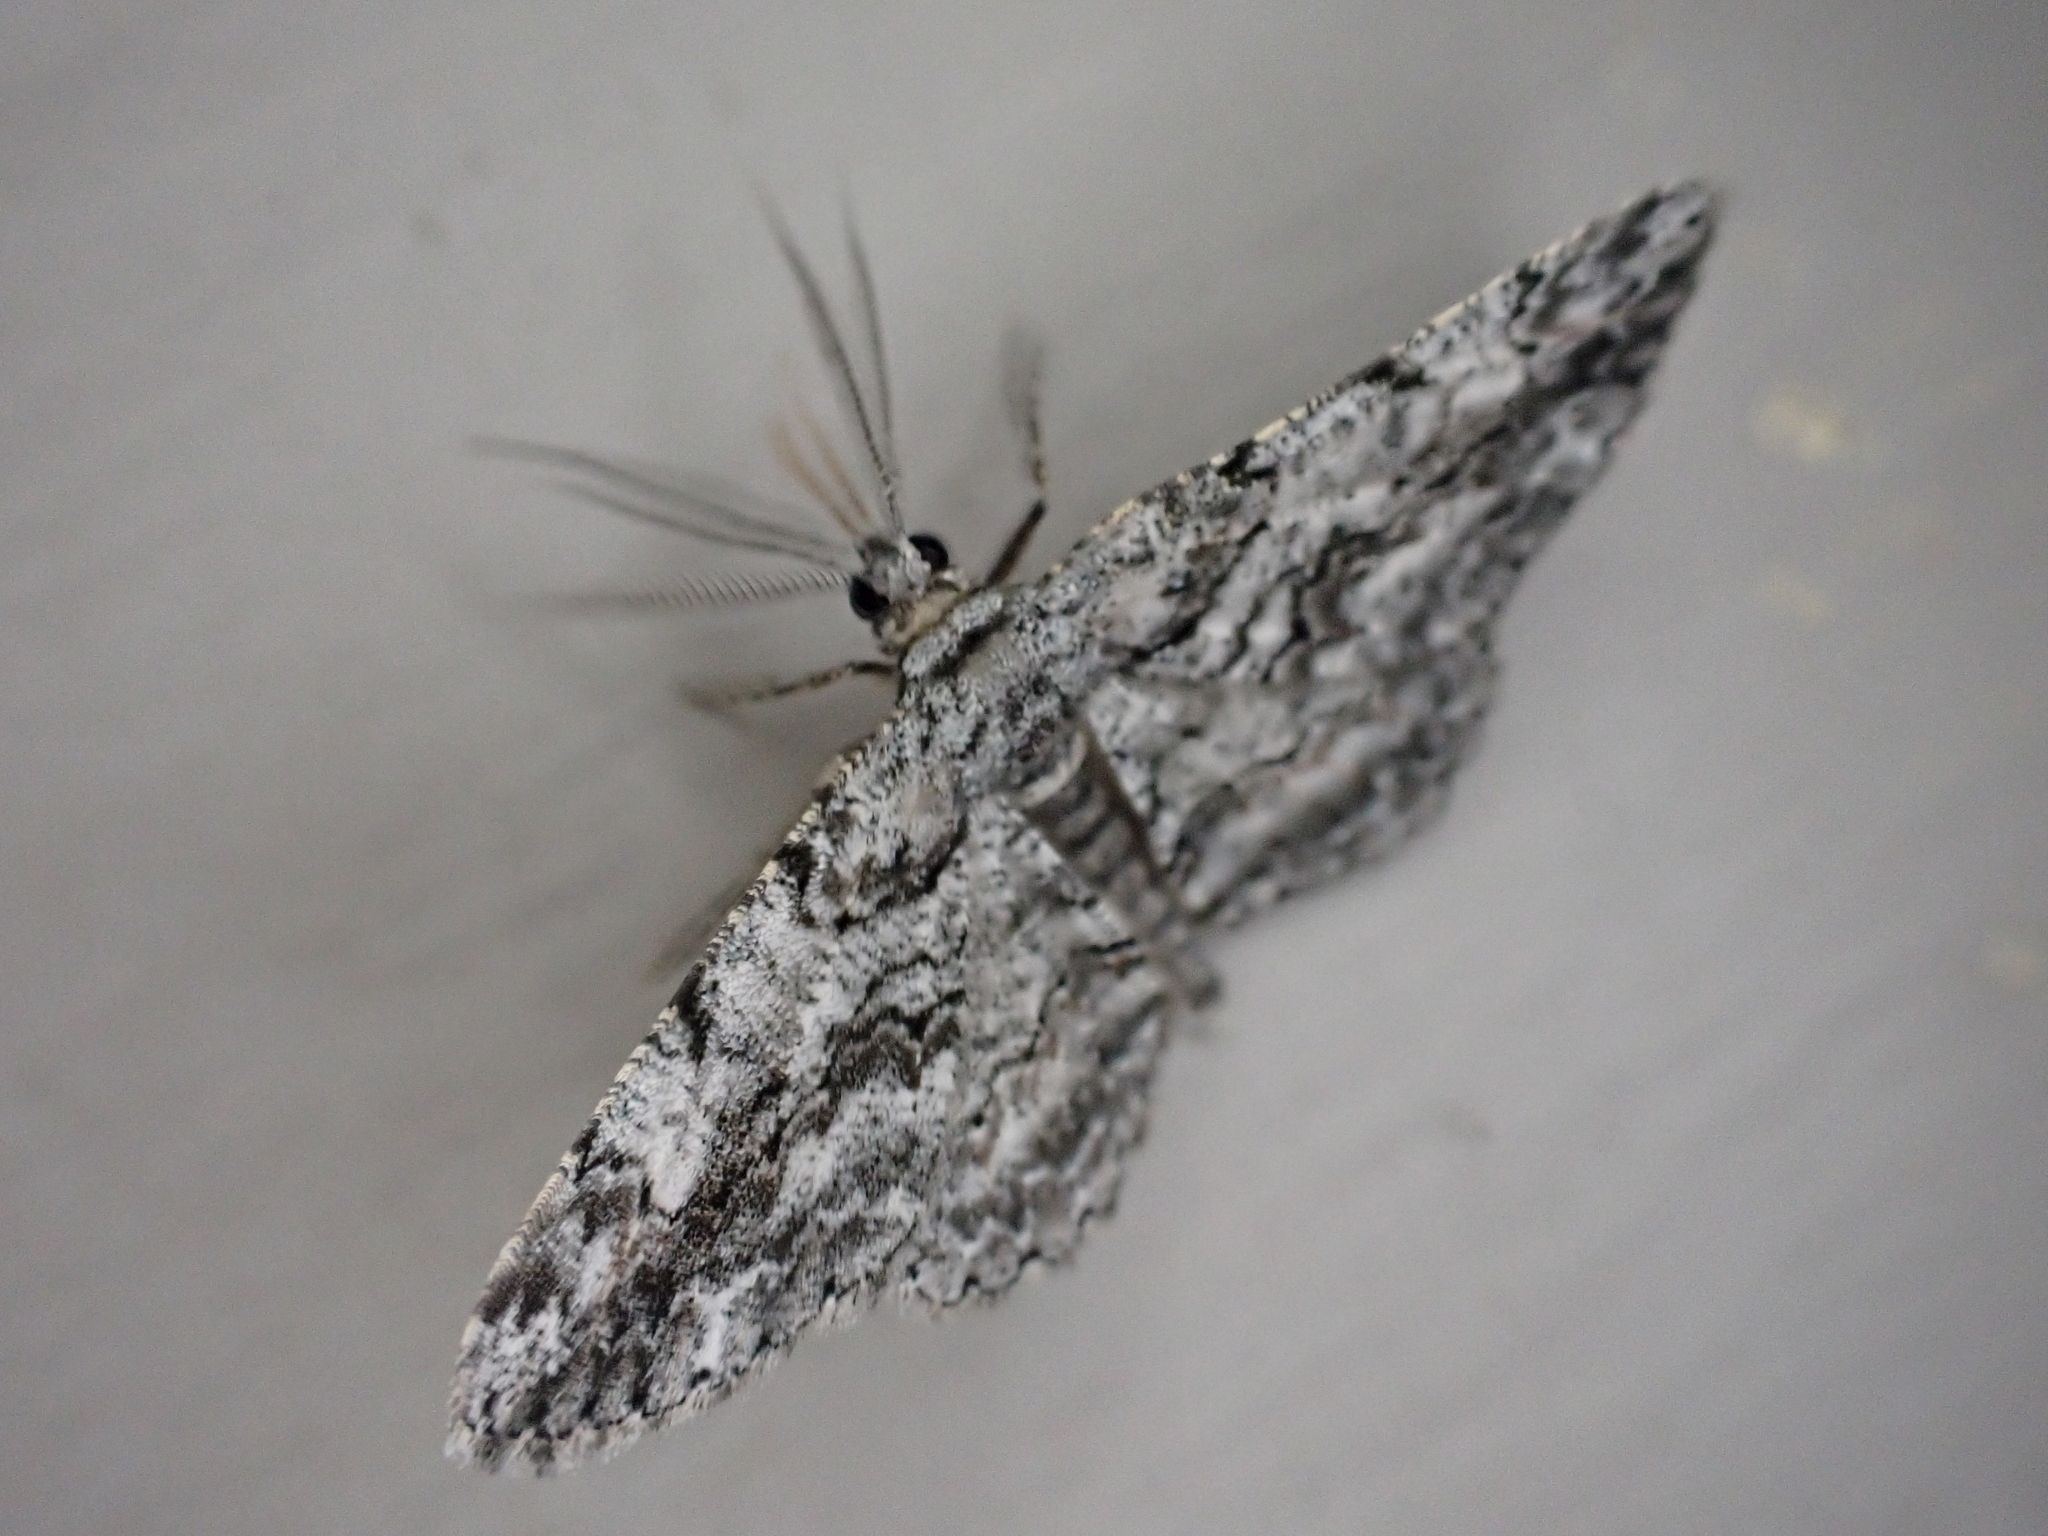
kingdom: Animalia
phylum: Arthropoda
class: Insecta
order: Lepidoptera
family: Geometridae
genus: Anavitrinella
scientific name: Anavitrinella pampinaria
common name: Common gray
